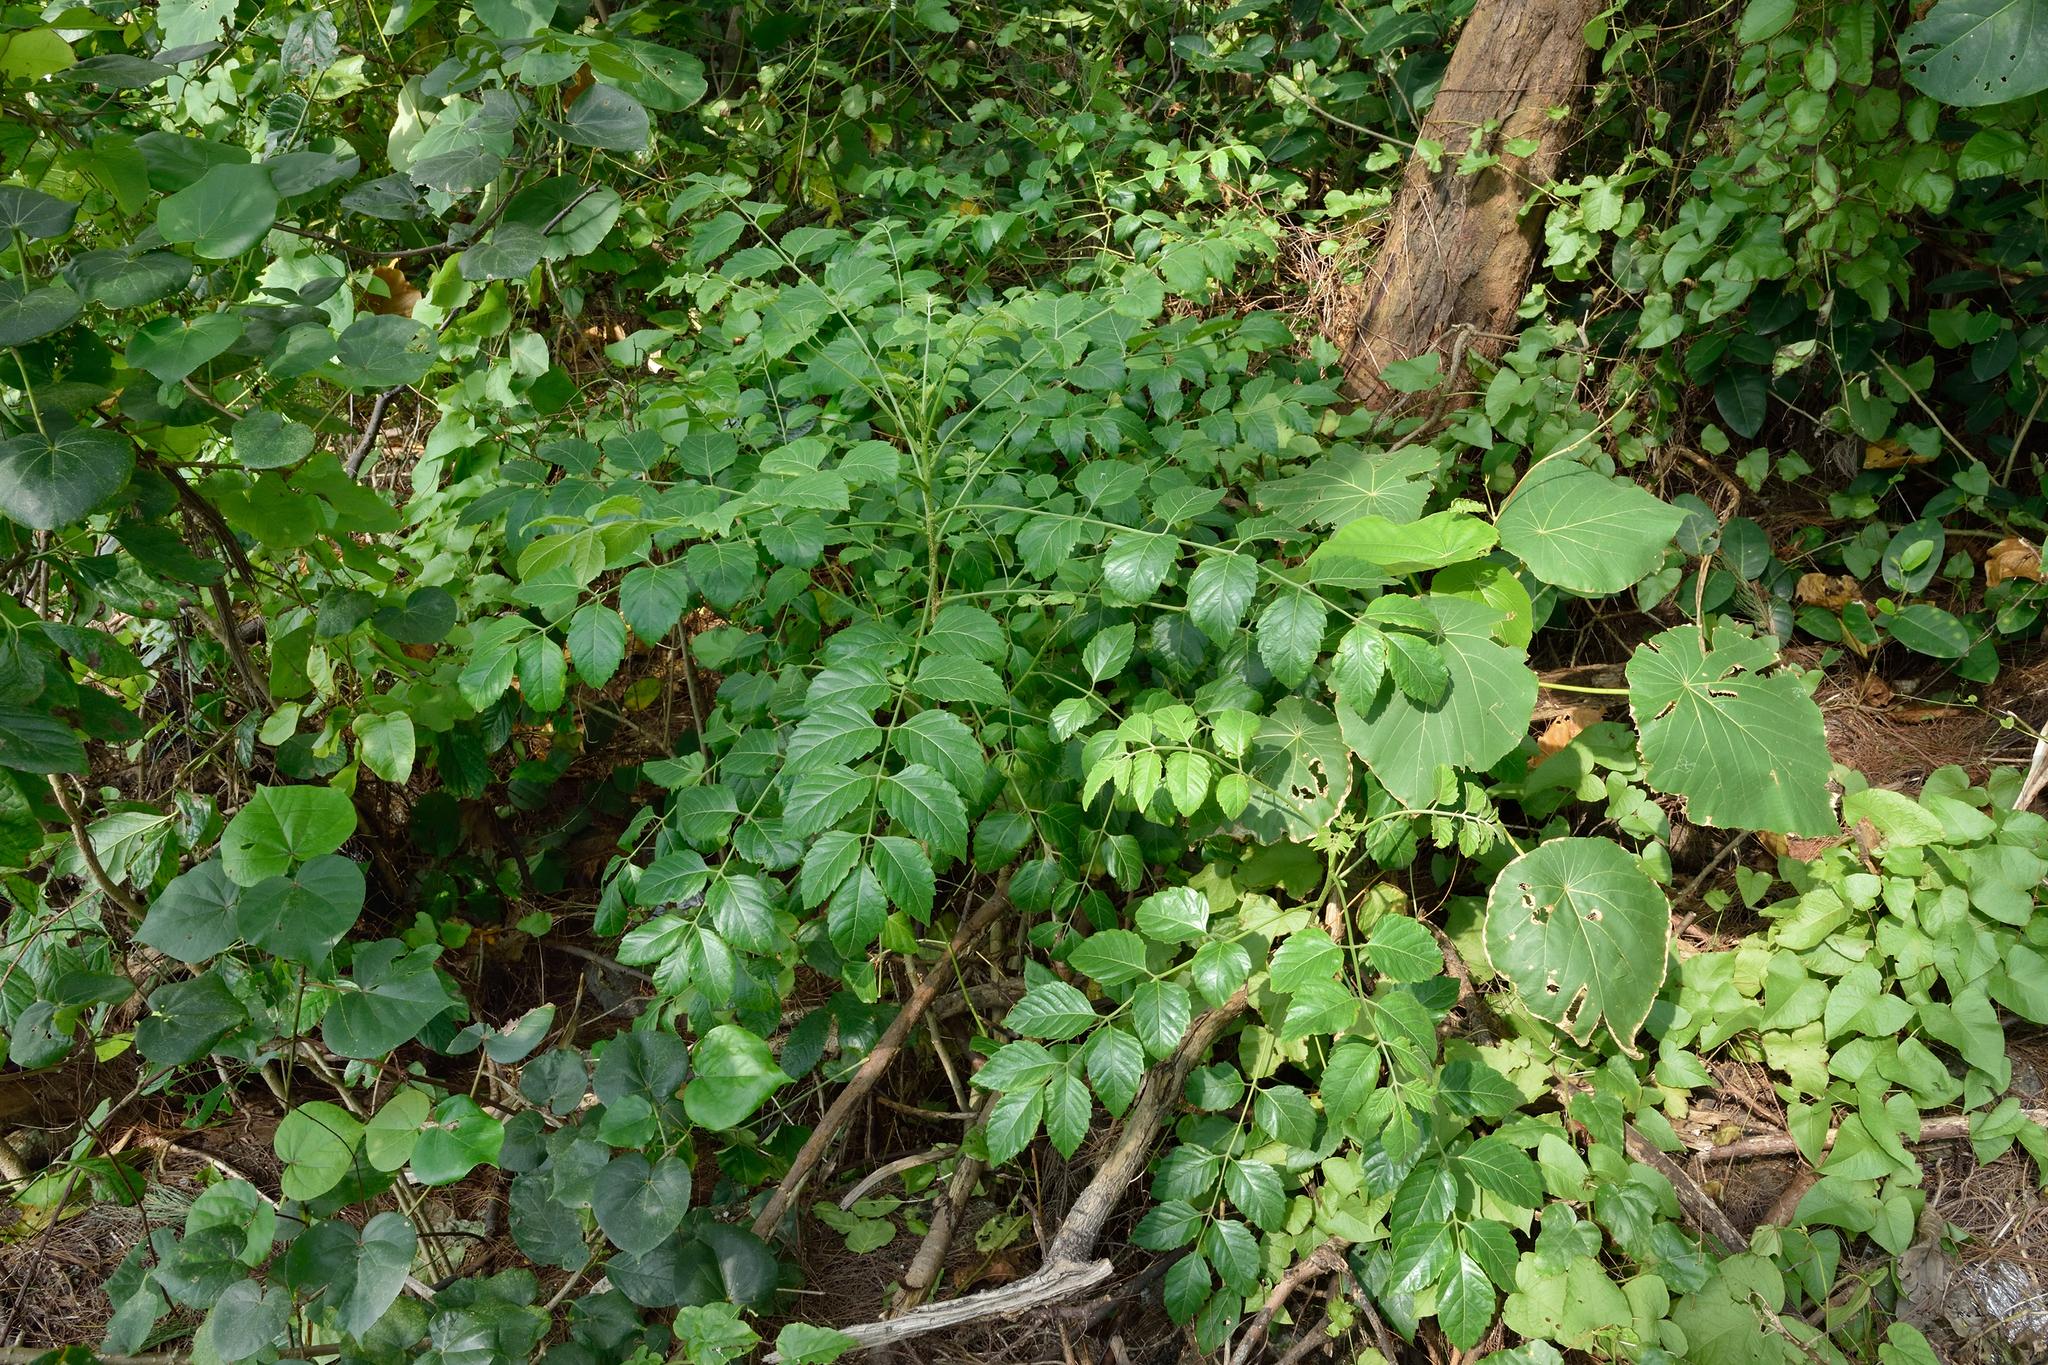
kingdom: Plantae
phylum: Tracheophyta
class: Magnoliopsida
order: Sapindales
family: Simaroubaceae
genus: Brucea
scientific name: Brucea javanica
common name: Macassar kernels
